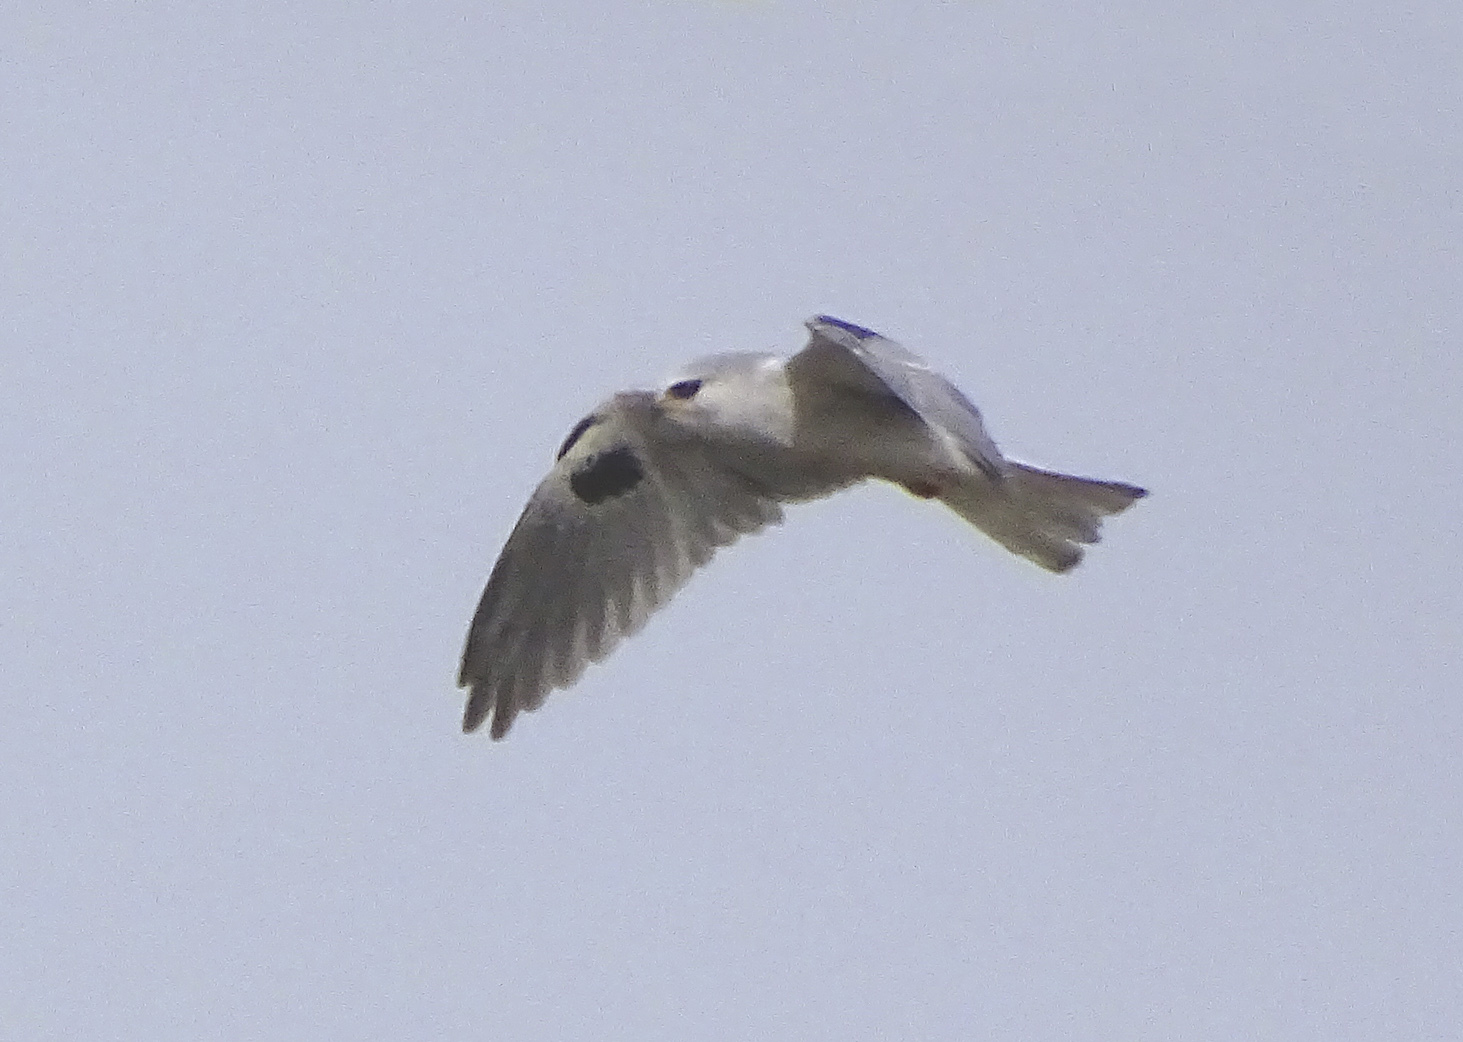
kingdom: Animalia
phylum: Chordata
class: Aves
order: Accipitriformes
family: Accipitridae
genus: Elanus
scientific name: Elanus leucurus
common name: White-tailed kite
